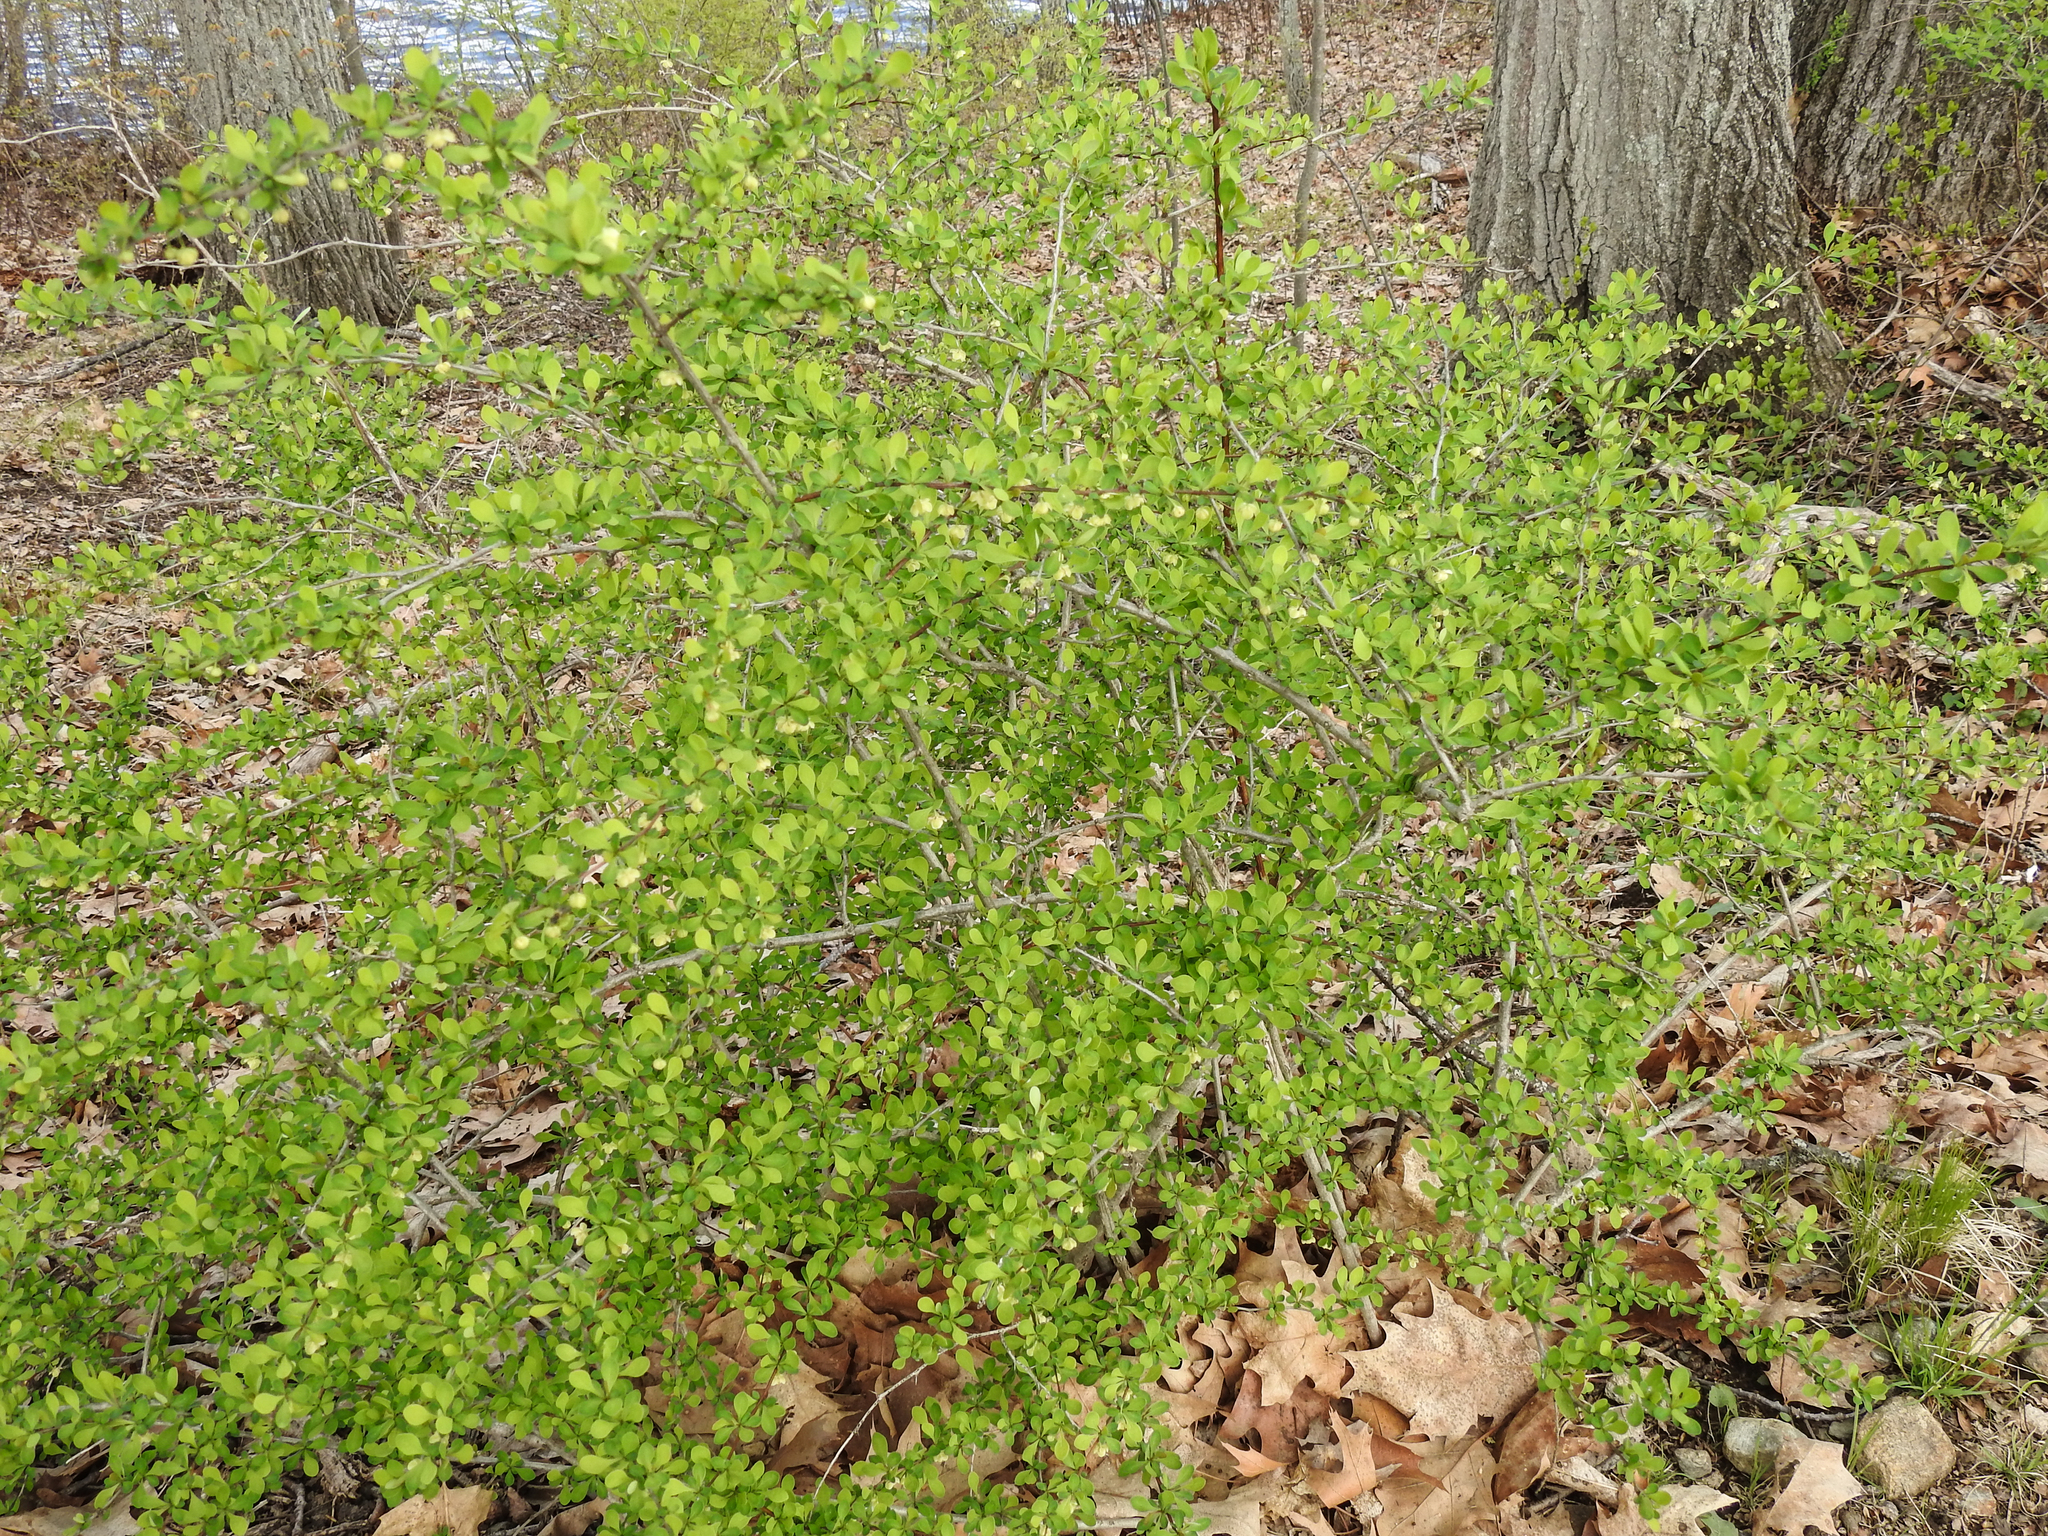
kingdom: Plantae
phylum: Tracheophyta
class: Magnoliopsida
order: Ranunculales
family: Berberidaceae
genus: Berberis
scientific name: Berberis thunbergii
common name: Japanese barberry
